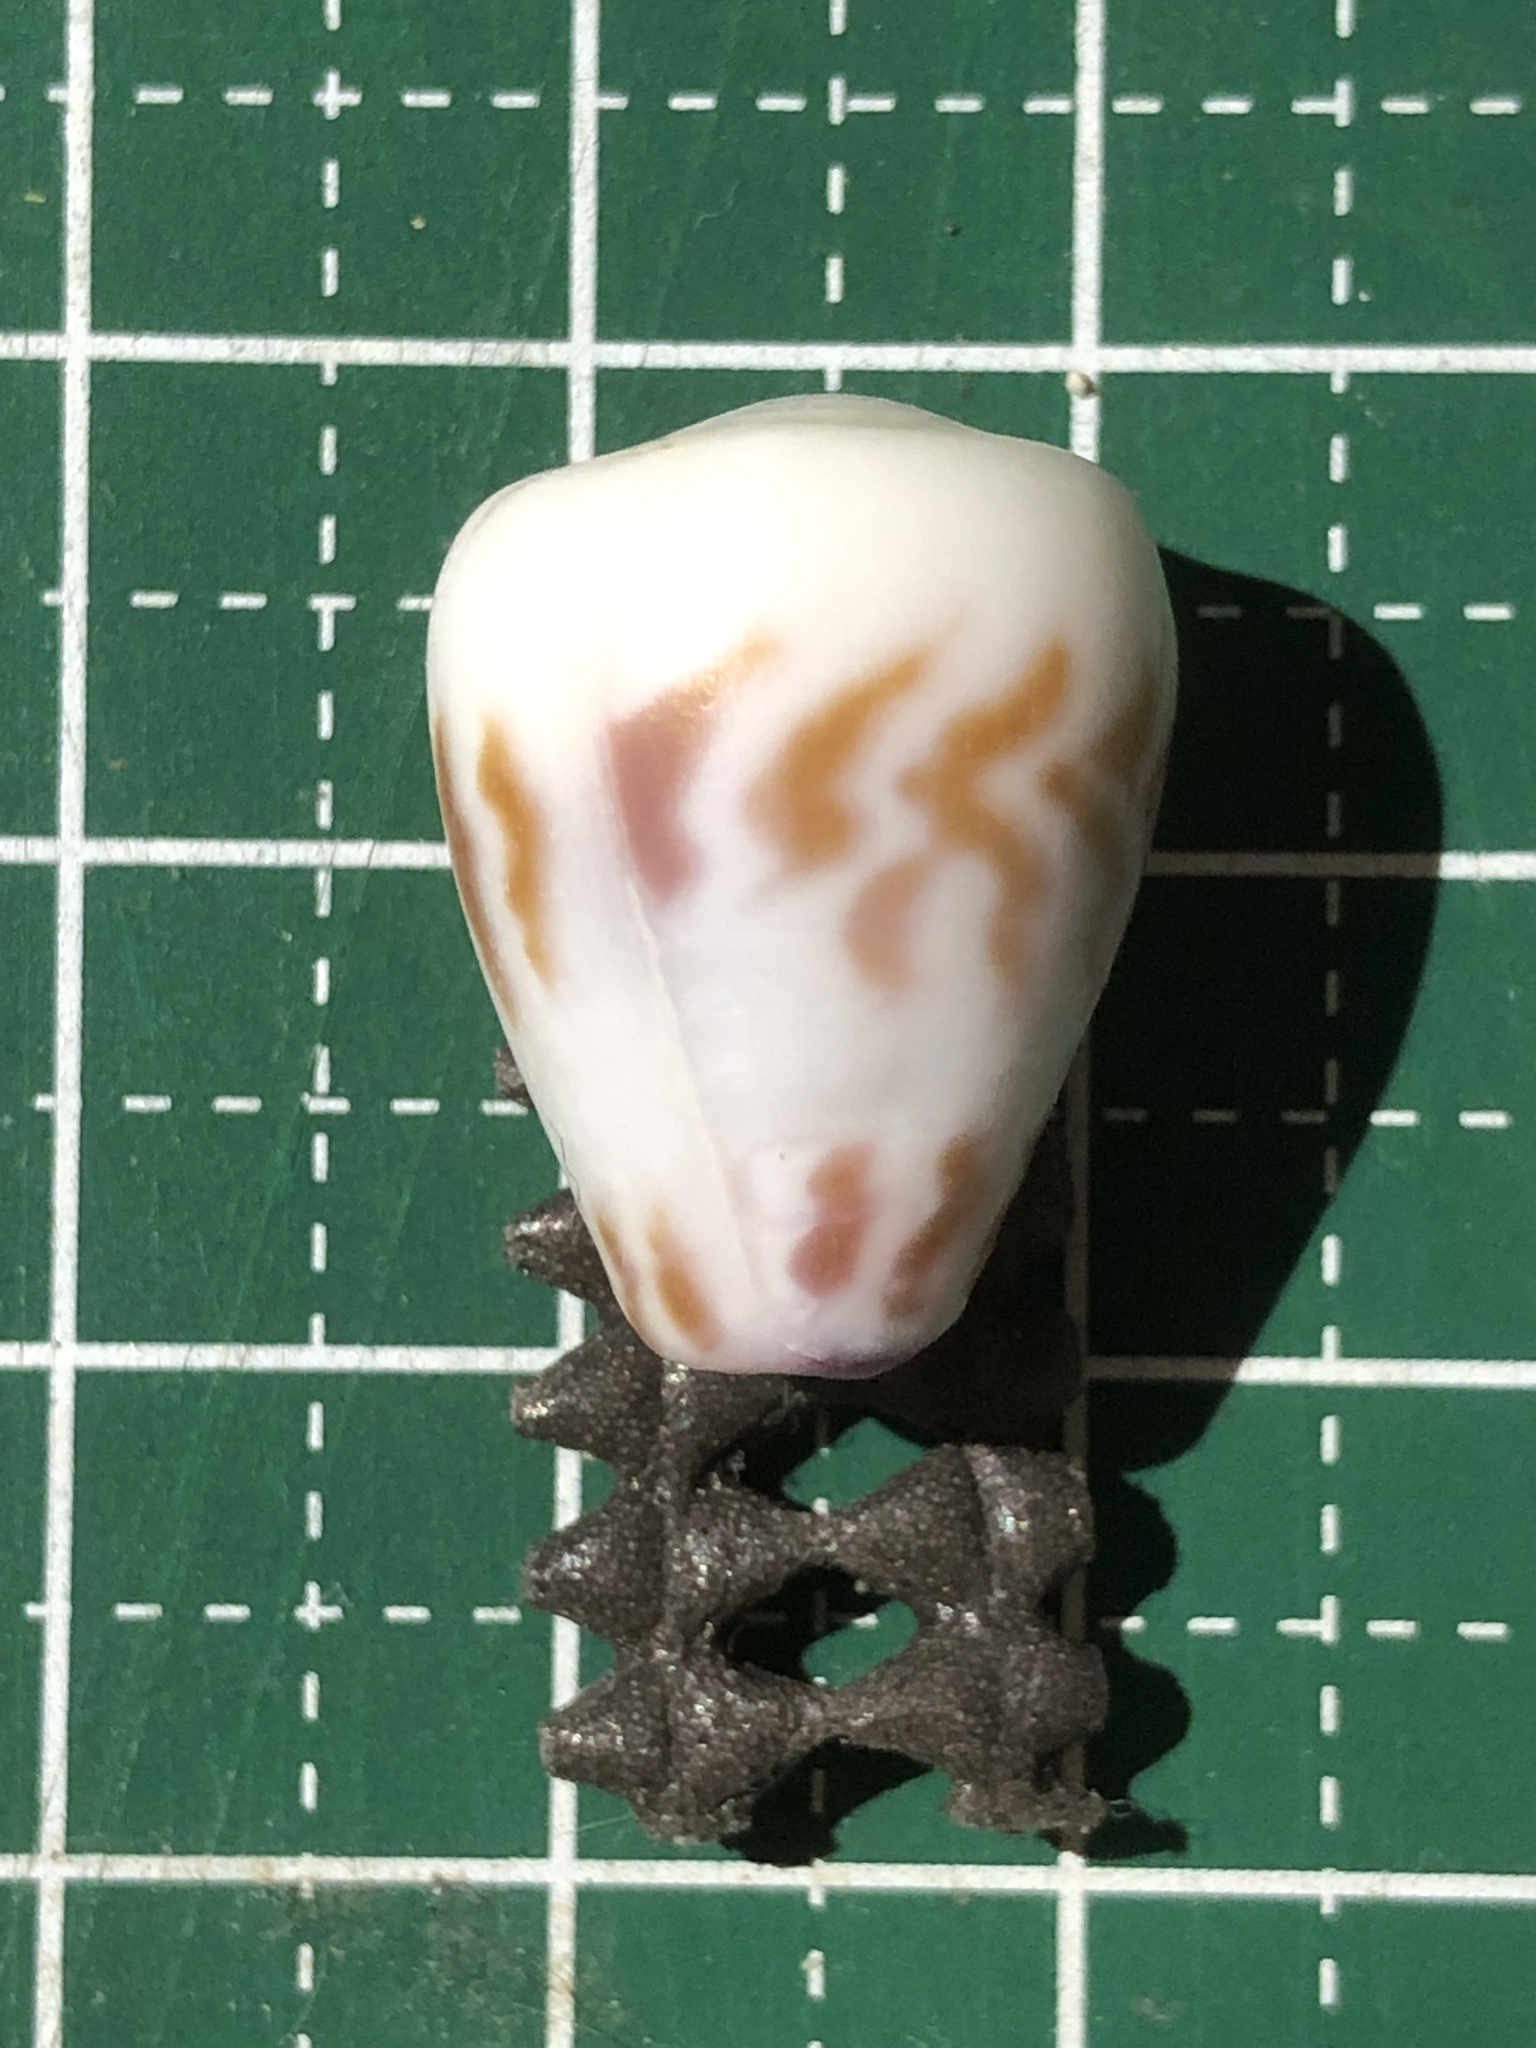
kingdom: Animalia
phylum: Mollusca
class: Gastropoda
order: Neogastropoda
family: Conidae
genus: Conus
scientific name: Conus sponsalis
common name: Sponsal cone
